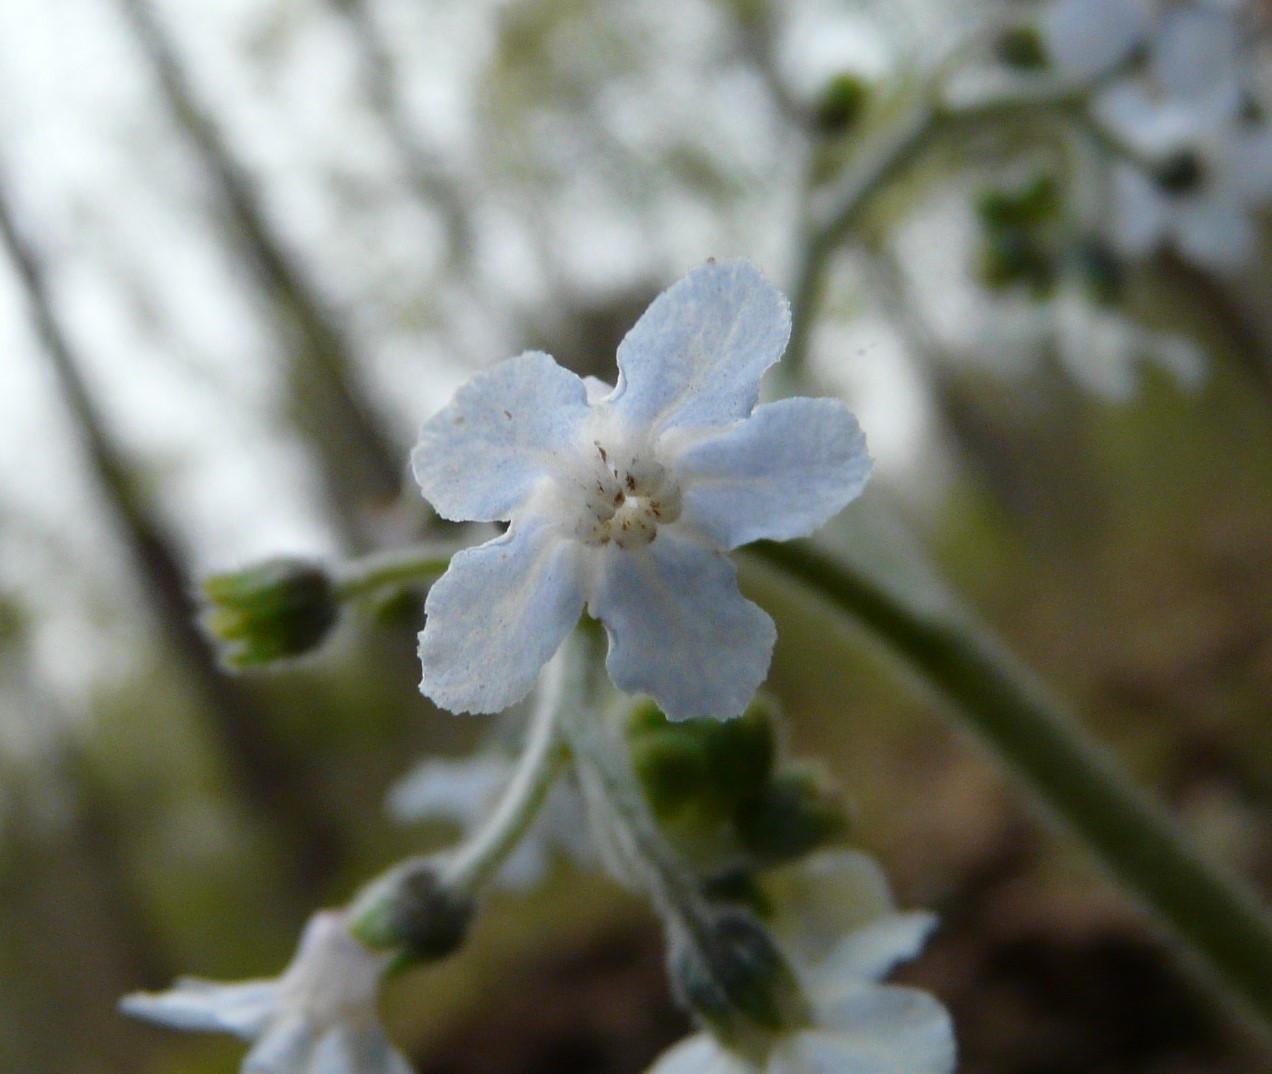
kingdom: Plantae
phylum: Tracheophyta
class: Magnoliopsida
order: Boraginales
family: Boraginaceae
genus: Andersonglossum
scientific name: Andersonglossum virginianum
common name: Wild comfrey
